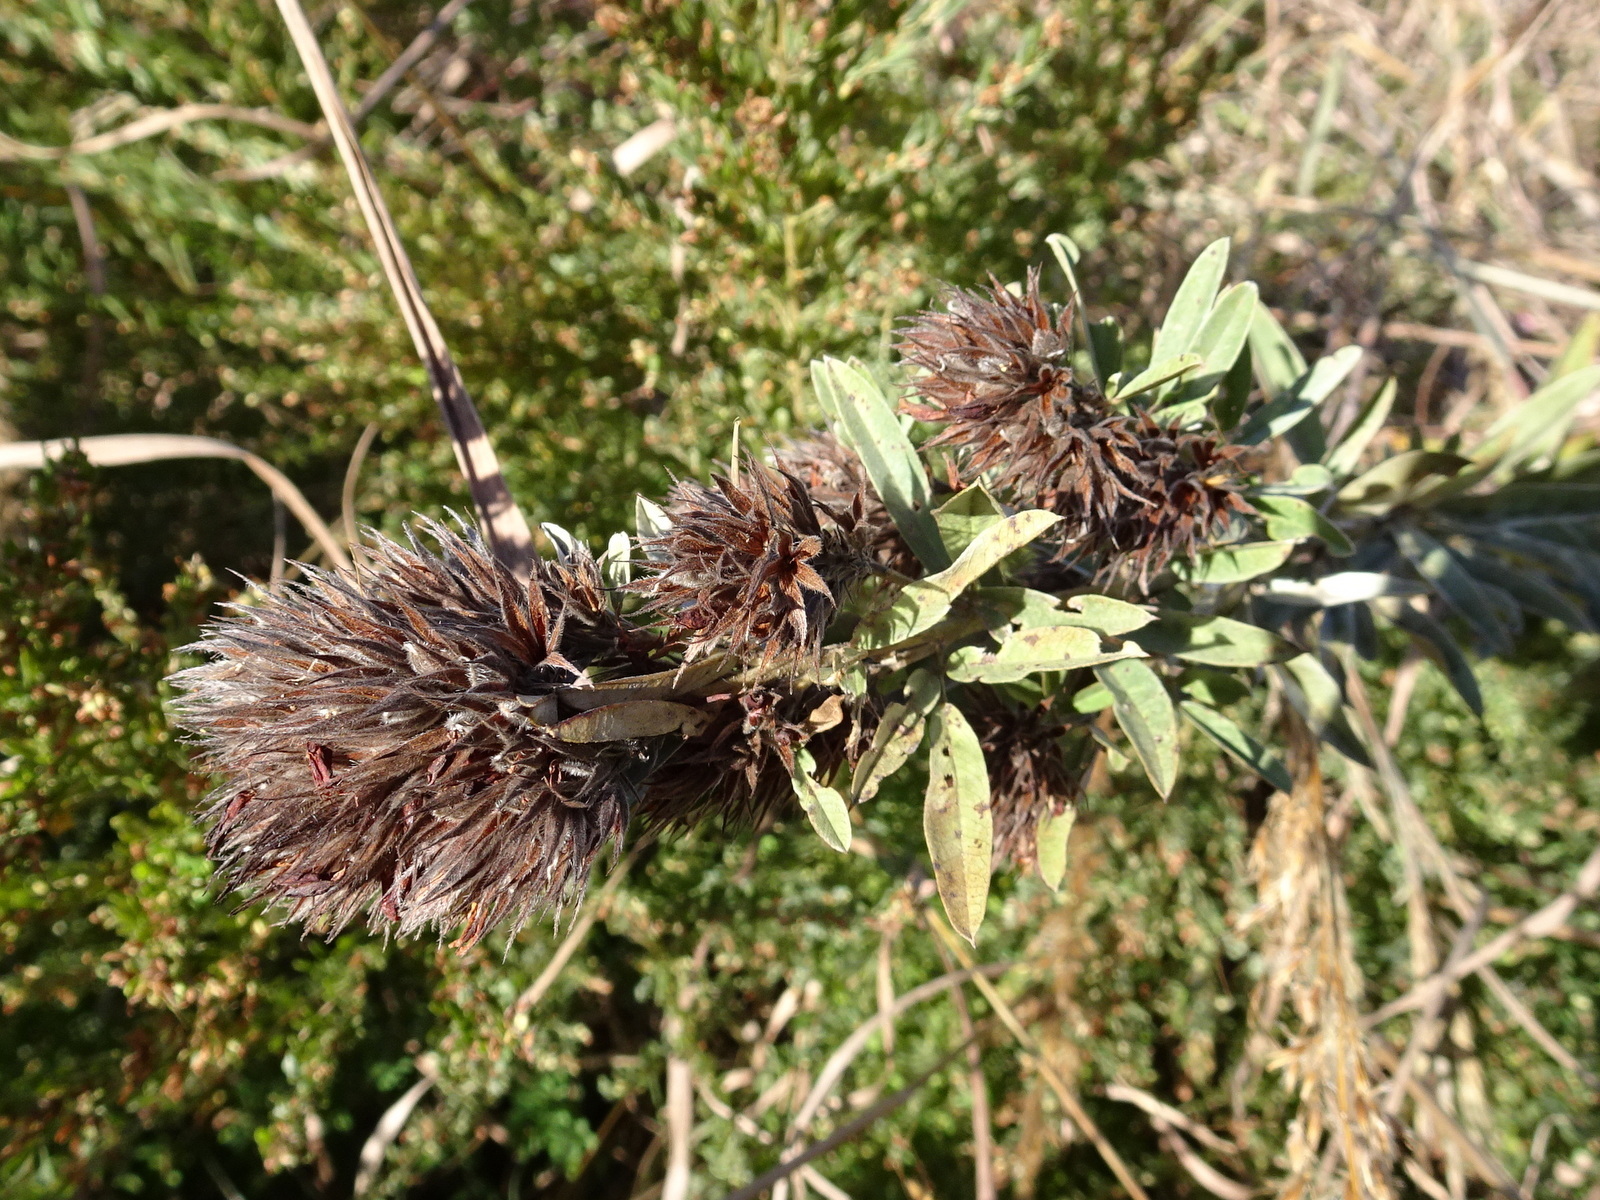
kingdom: Plantae
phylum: Tracheophyta
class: Magnoliopsida
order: Fabales
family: Fabaceae
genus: Lespedeza
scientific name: Lespedeza capitata
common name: Dusty clover
